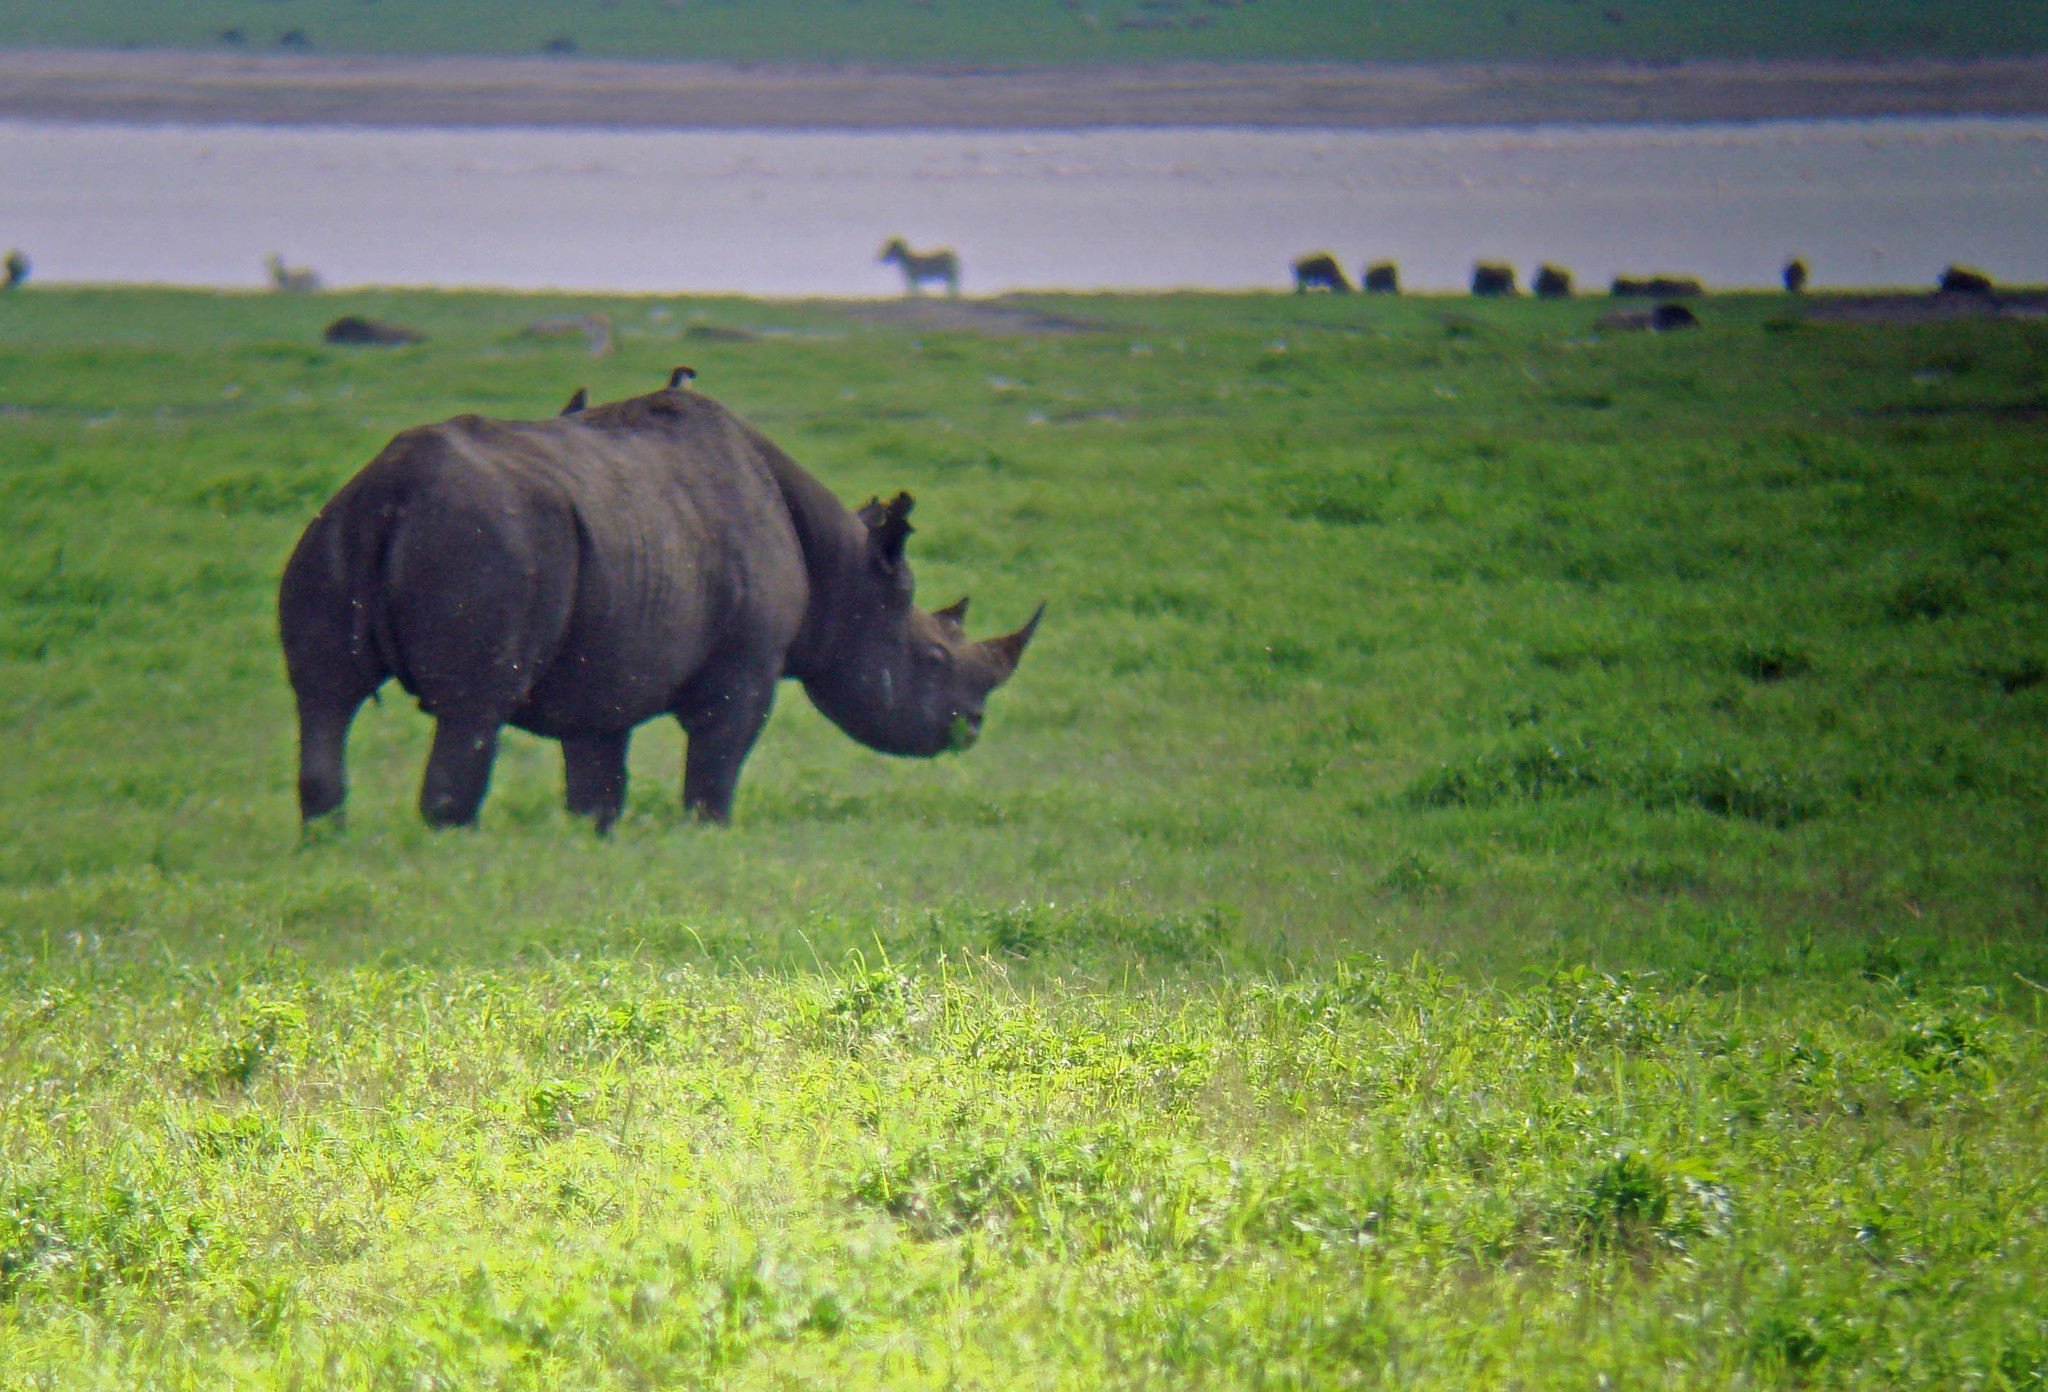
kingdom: Animalia
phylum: Chordata
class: Mammalia
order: Perissodactyla
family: Rhinocerotidae
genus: Diceros
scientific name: Diceros bicornis
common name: Black rhinoceros
